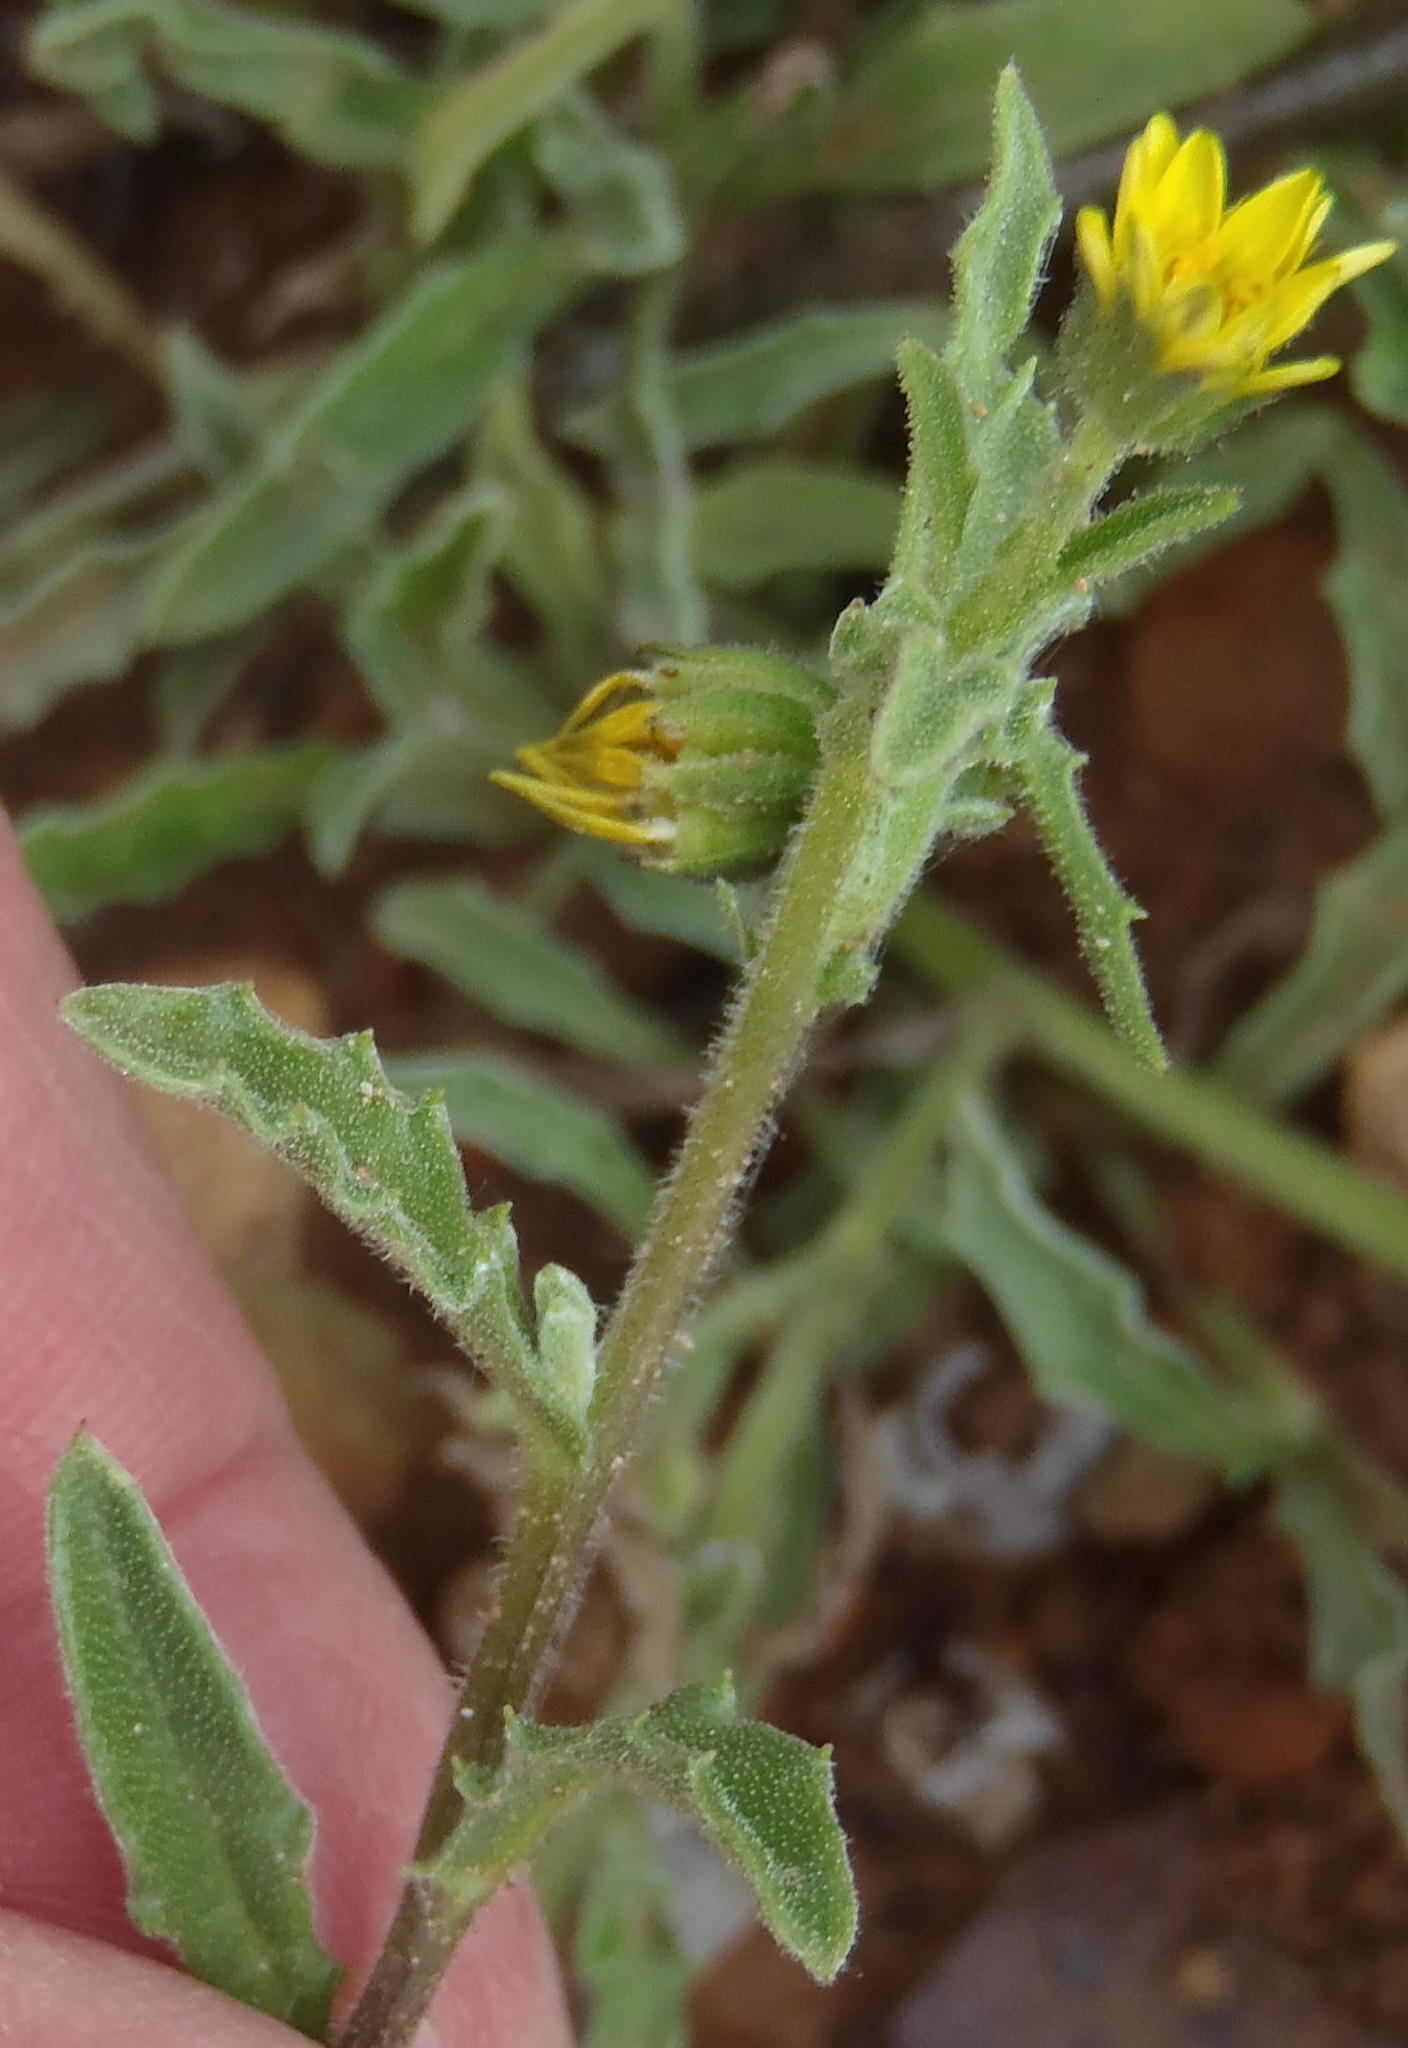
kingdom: Plantae
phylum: Tracheophyta
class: Magnoliopsida
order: Asterales
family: Asteraceae
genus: Osteospermum
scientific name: Osteospermum calendulaceum
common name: Stinking roger
